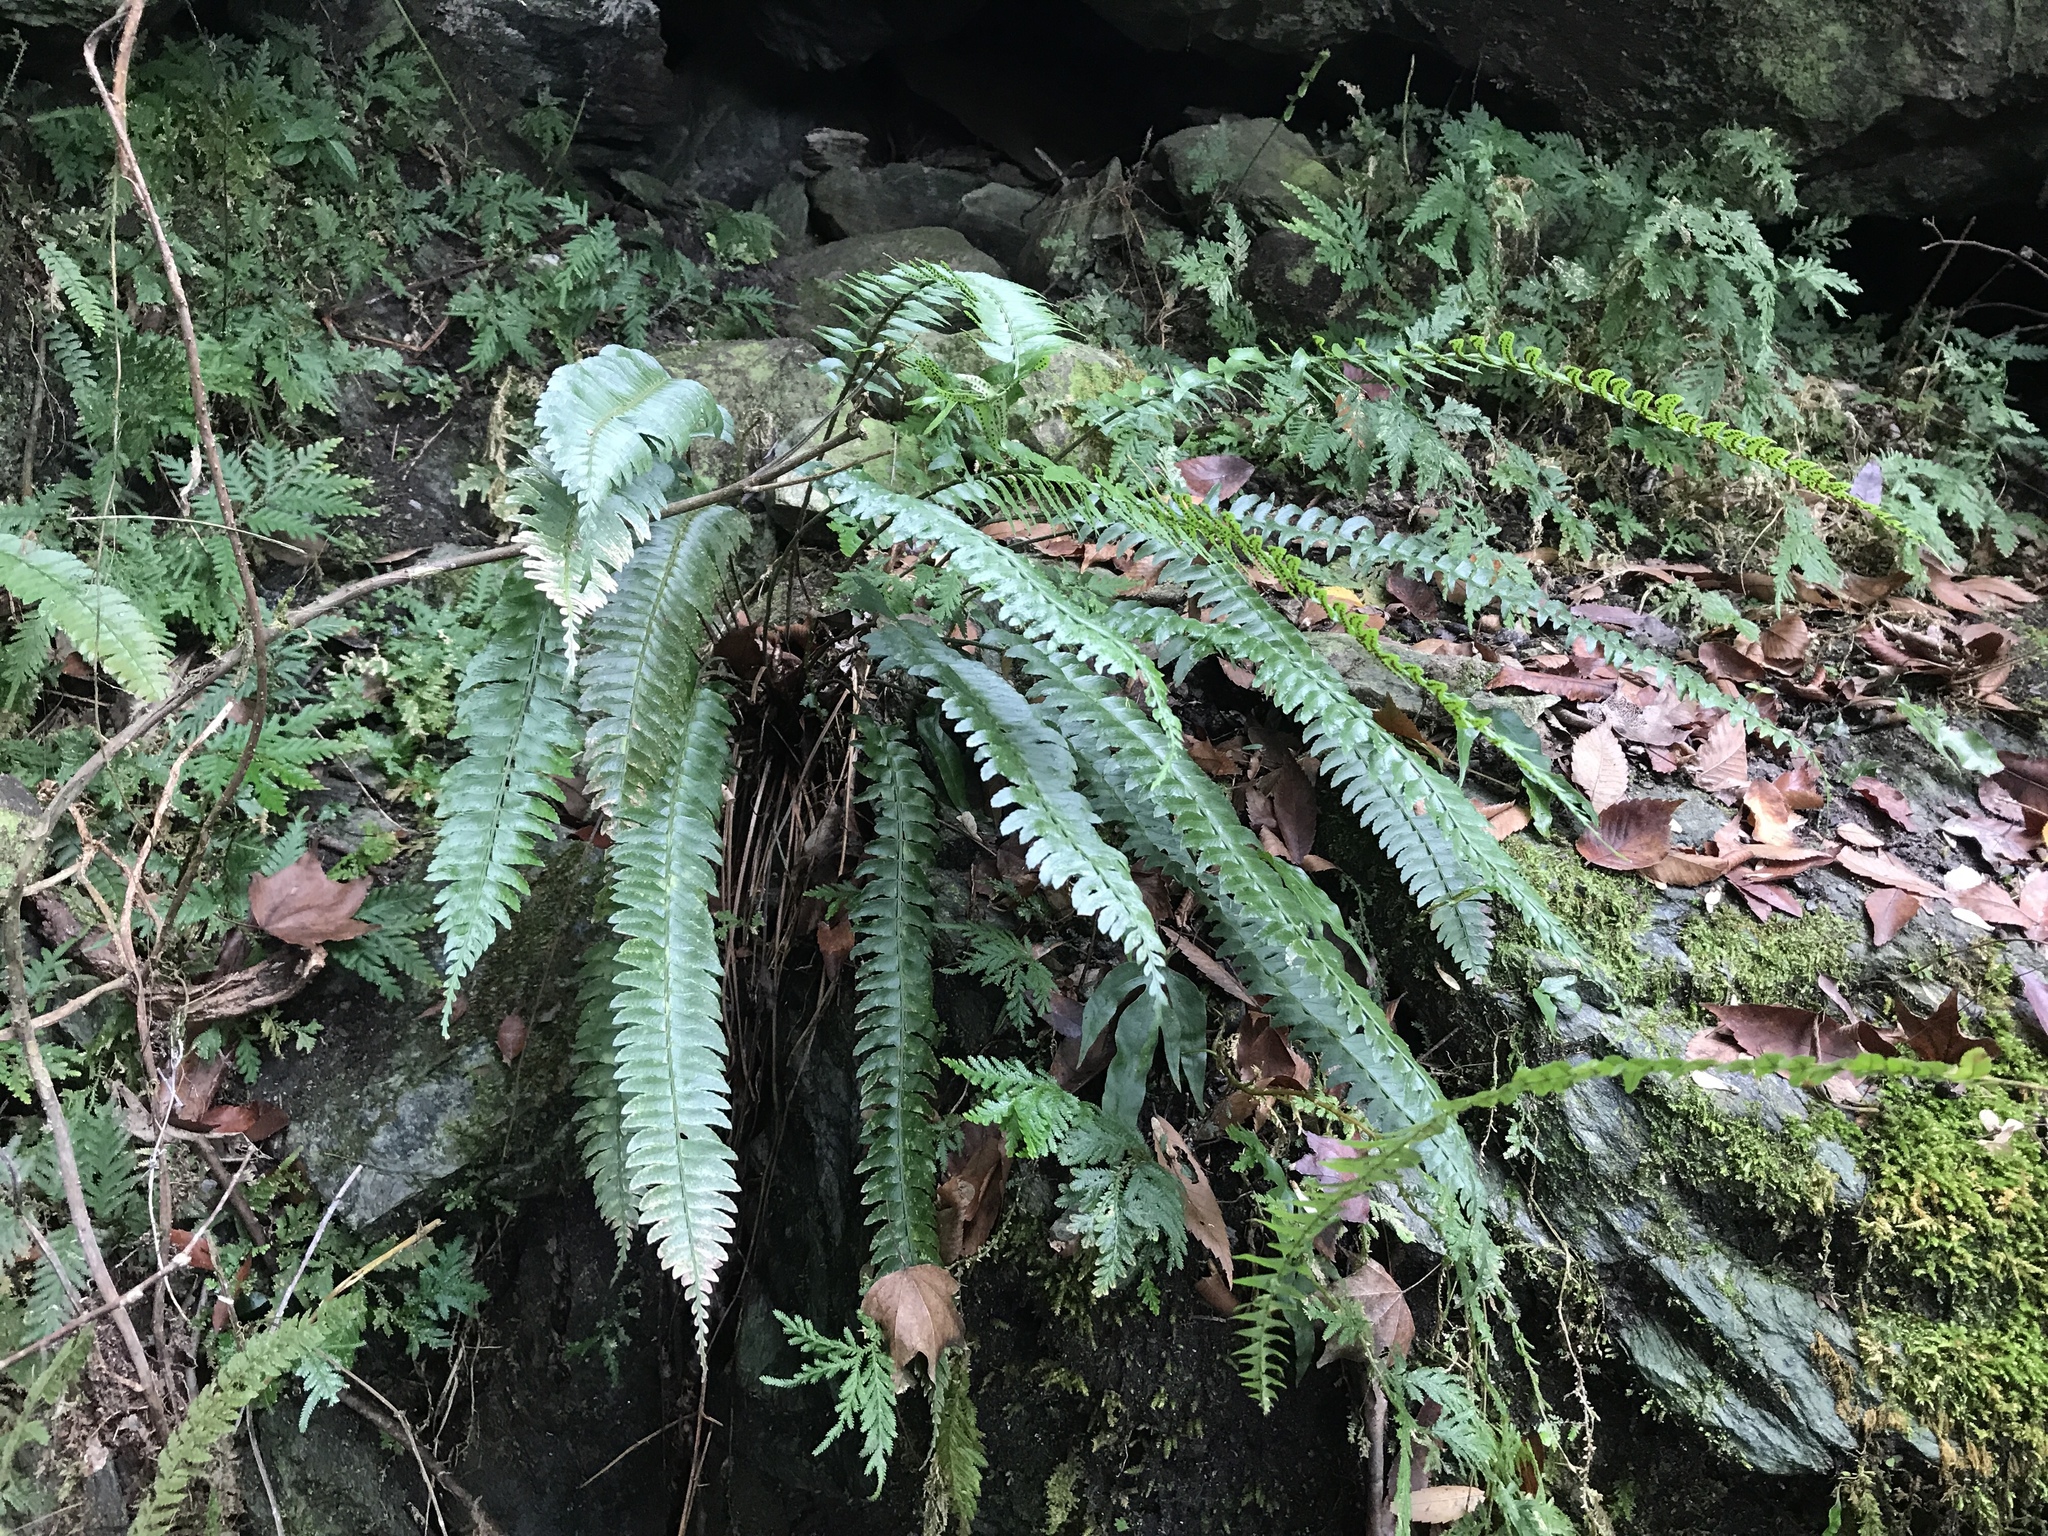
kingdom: Plantae
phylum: Tracheophyta
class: Polypodiopsida
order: Polypodiales
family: Dryopteridaceae
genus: Polystichum
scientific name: Polystichum acutidens
